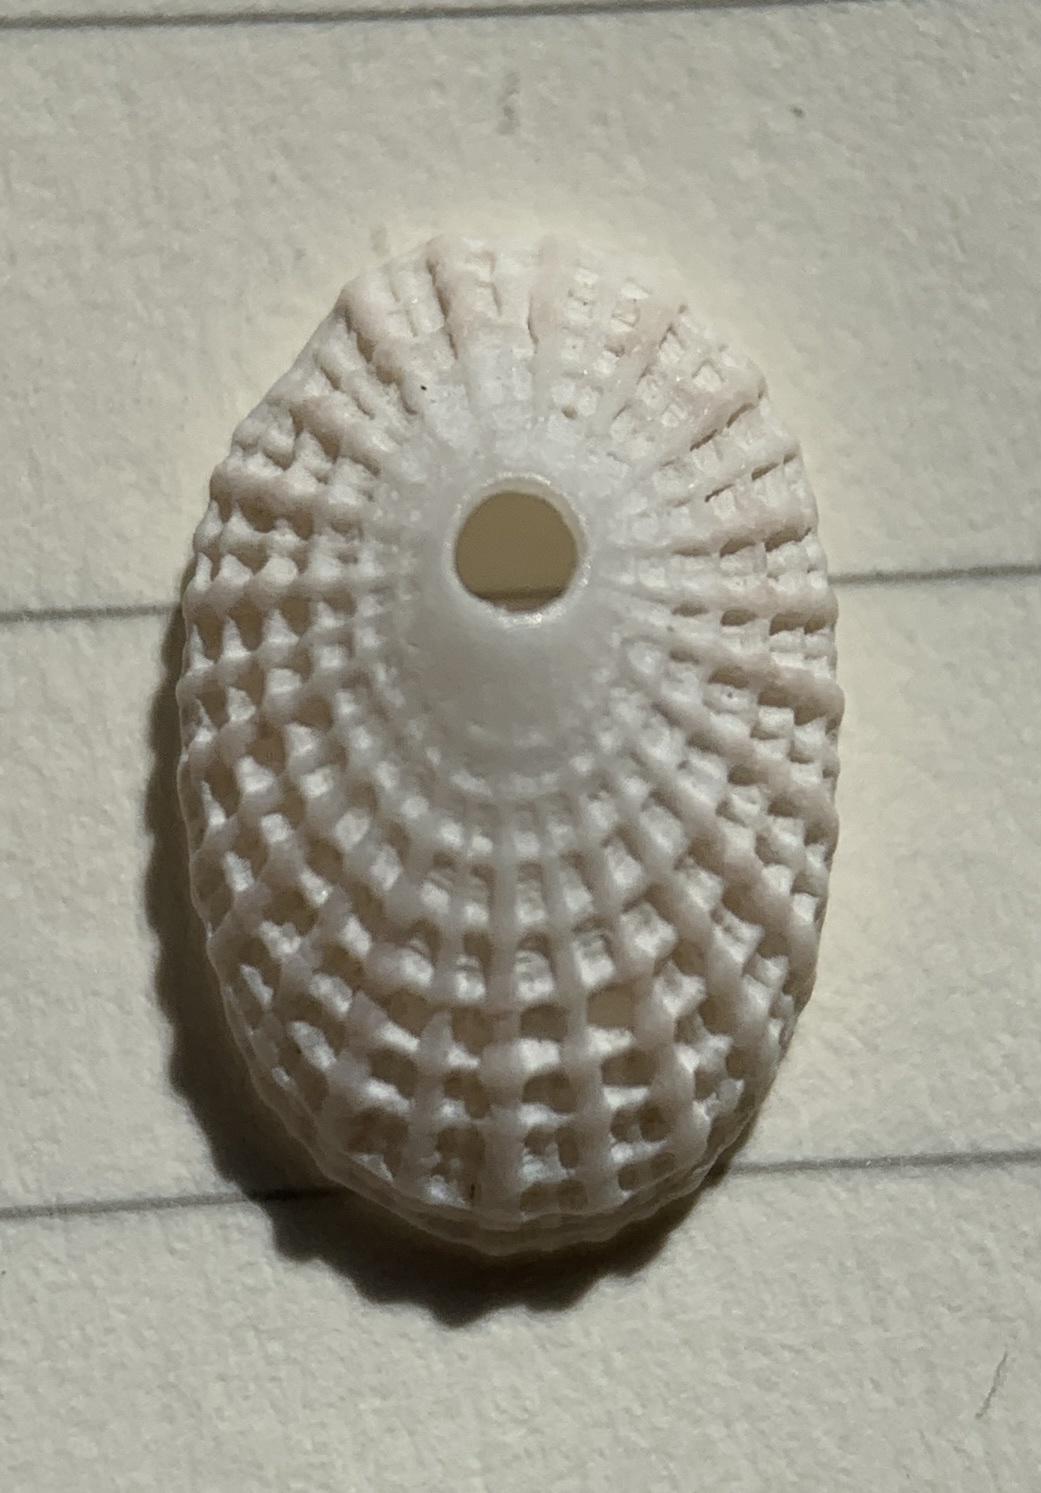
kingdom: Animalia
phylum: Mollusca
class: Gastropoda
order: Lepetellida
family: Fissurellidae
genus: Diodora
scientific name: Diodora meta
